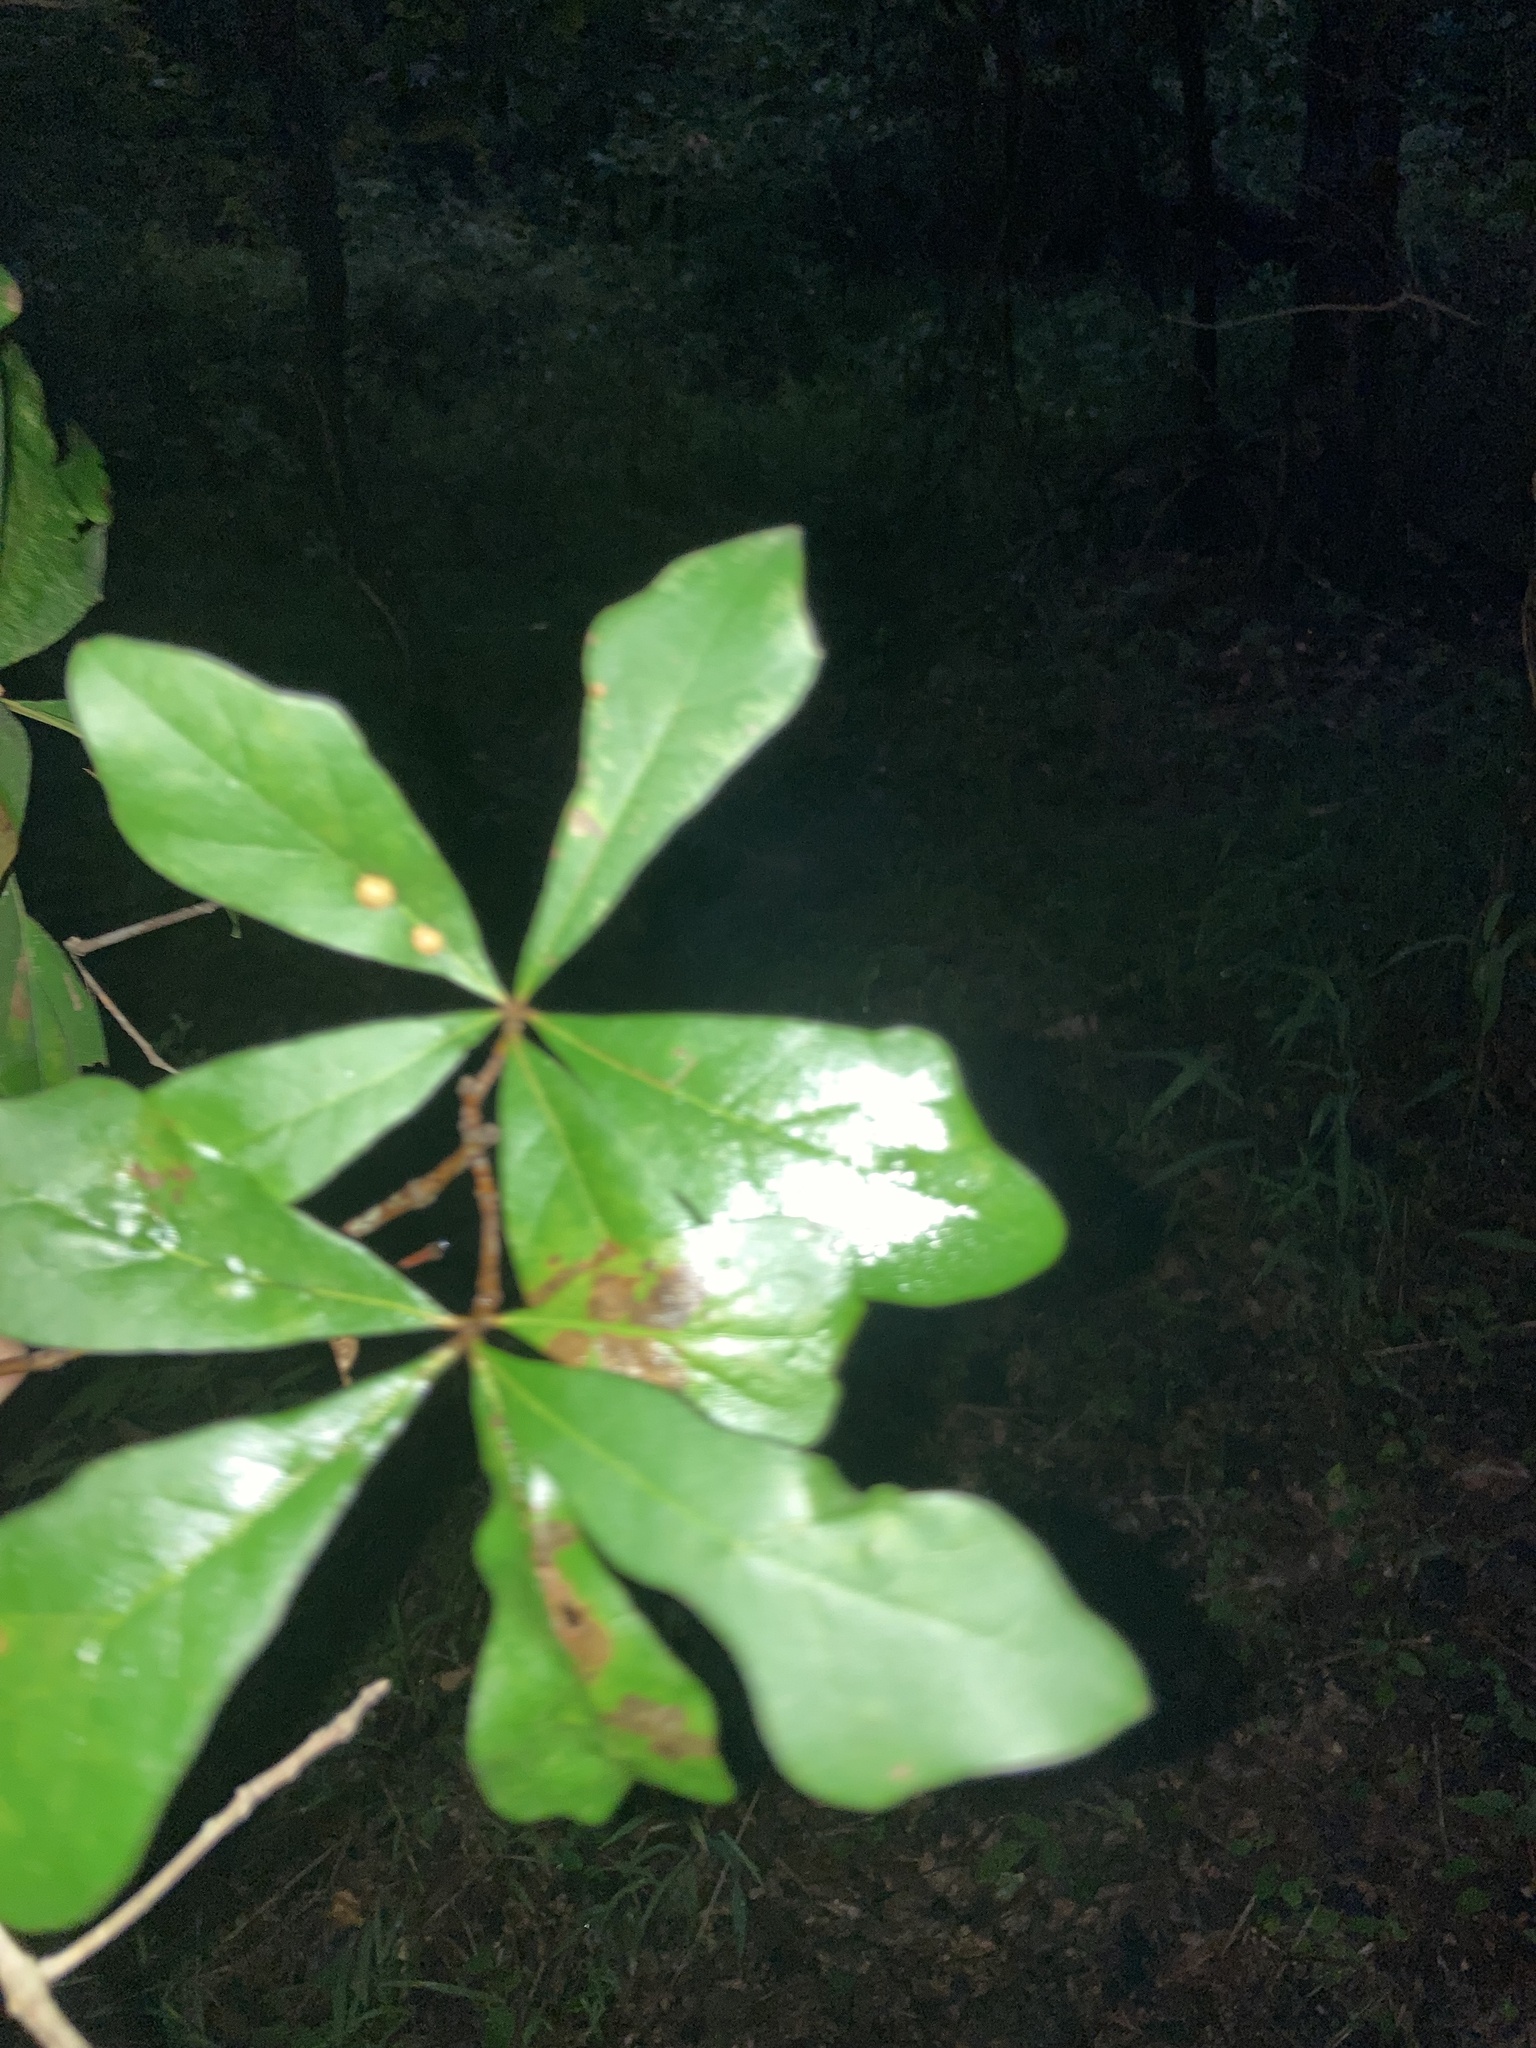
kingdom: Plantae
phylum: Tracheophyta
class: Magnoliopsida
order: Fagales
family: Fagaceae
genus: Quercus
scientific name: Quercus nigra
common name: Water oak
